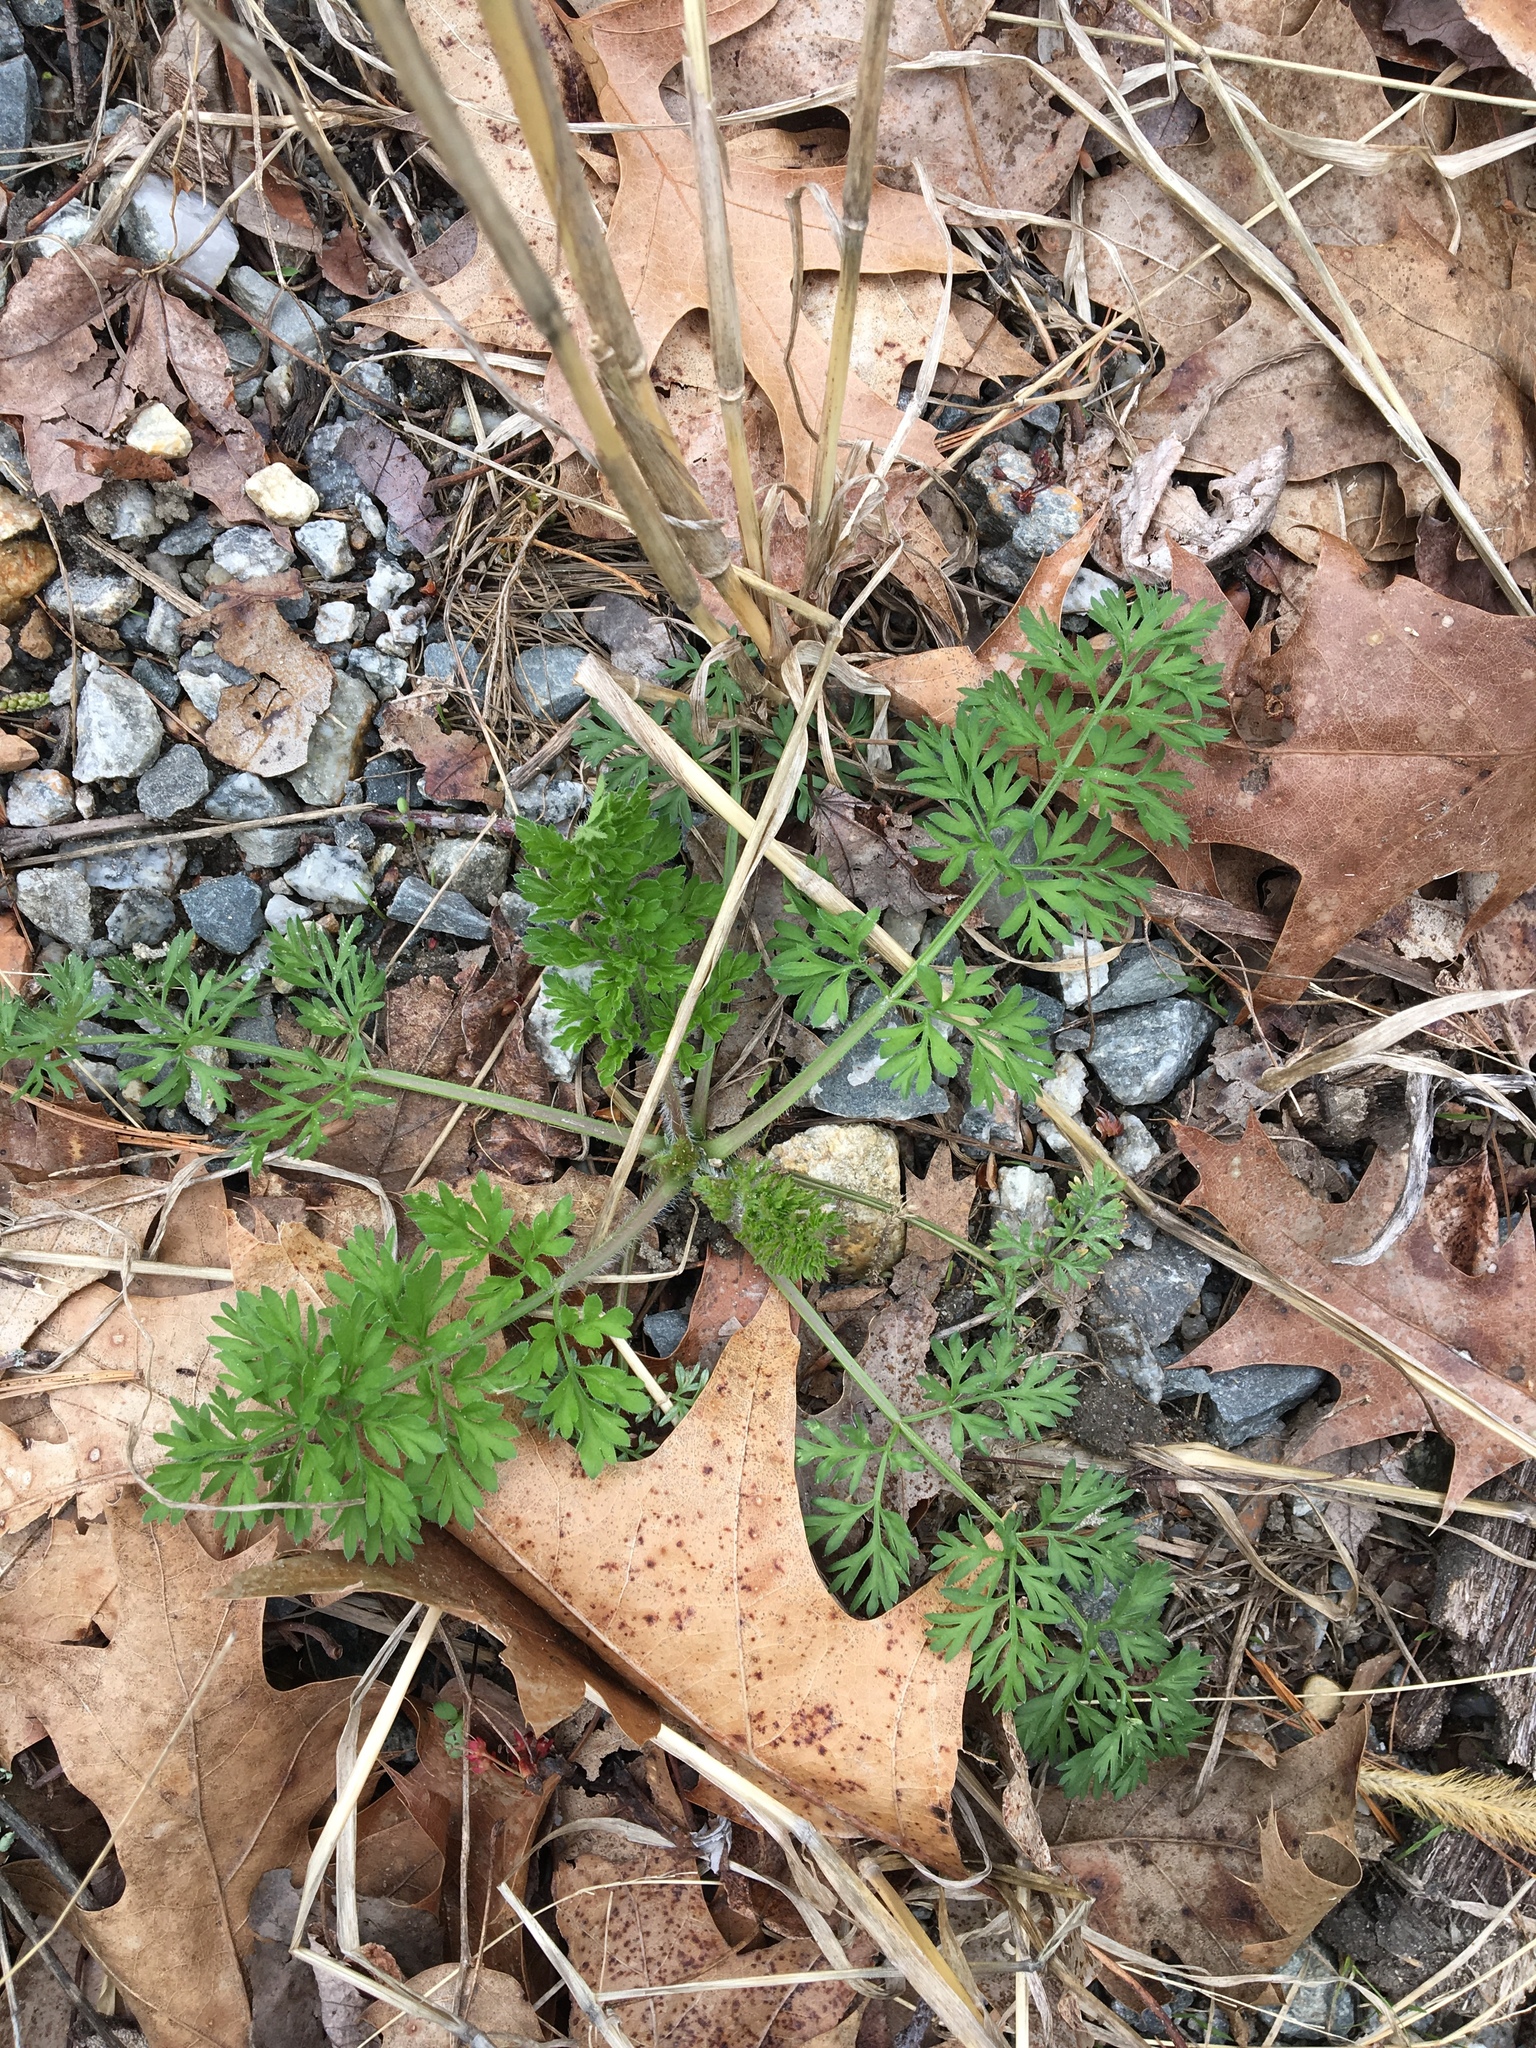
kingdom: Plantae
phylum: Tracheophyta
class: Magnoliopsida
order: Apiales
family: Apiaceae
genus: Daucus
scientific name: Daucus carota
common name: Wild carrot
